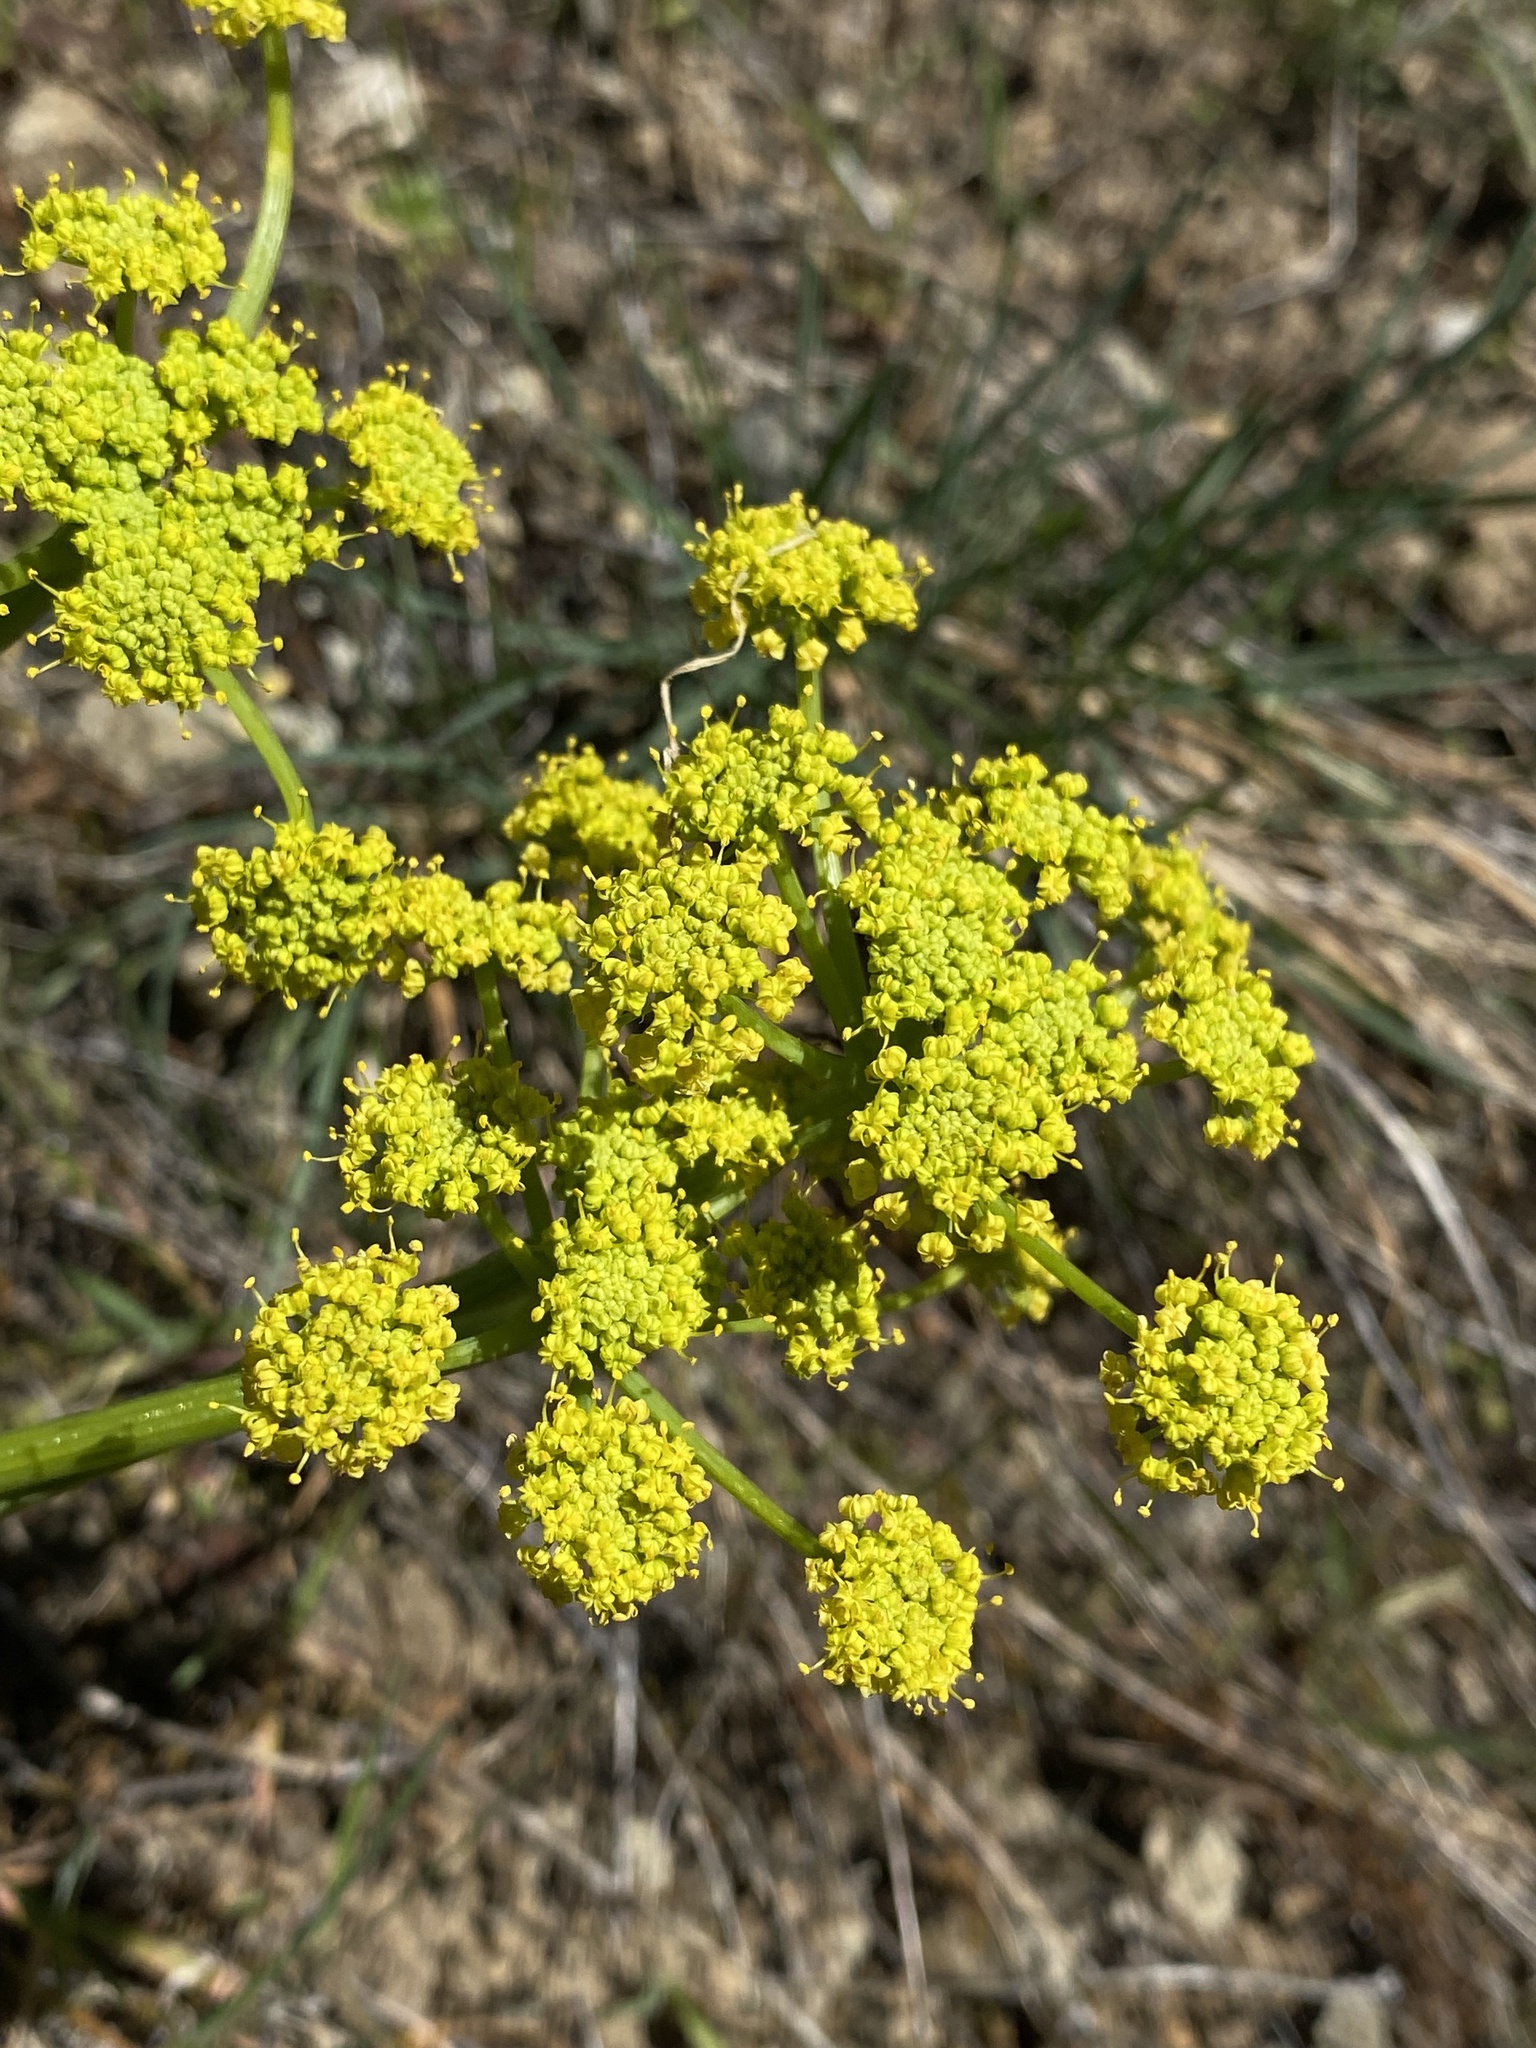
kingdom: Plantae
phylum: Tracheophyta
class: Magnoliopsida
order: Apiales
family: Apiaceae
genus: Lomatium
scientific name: Lomatium papilioniferum
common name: Butterfly lomatium
